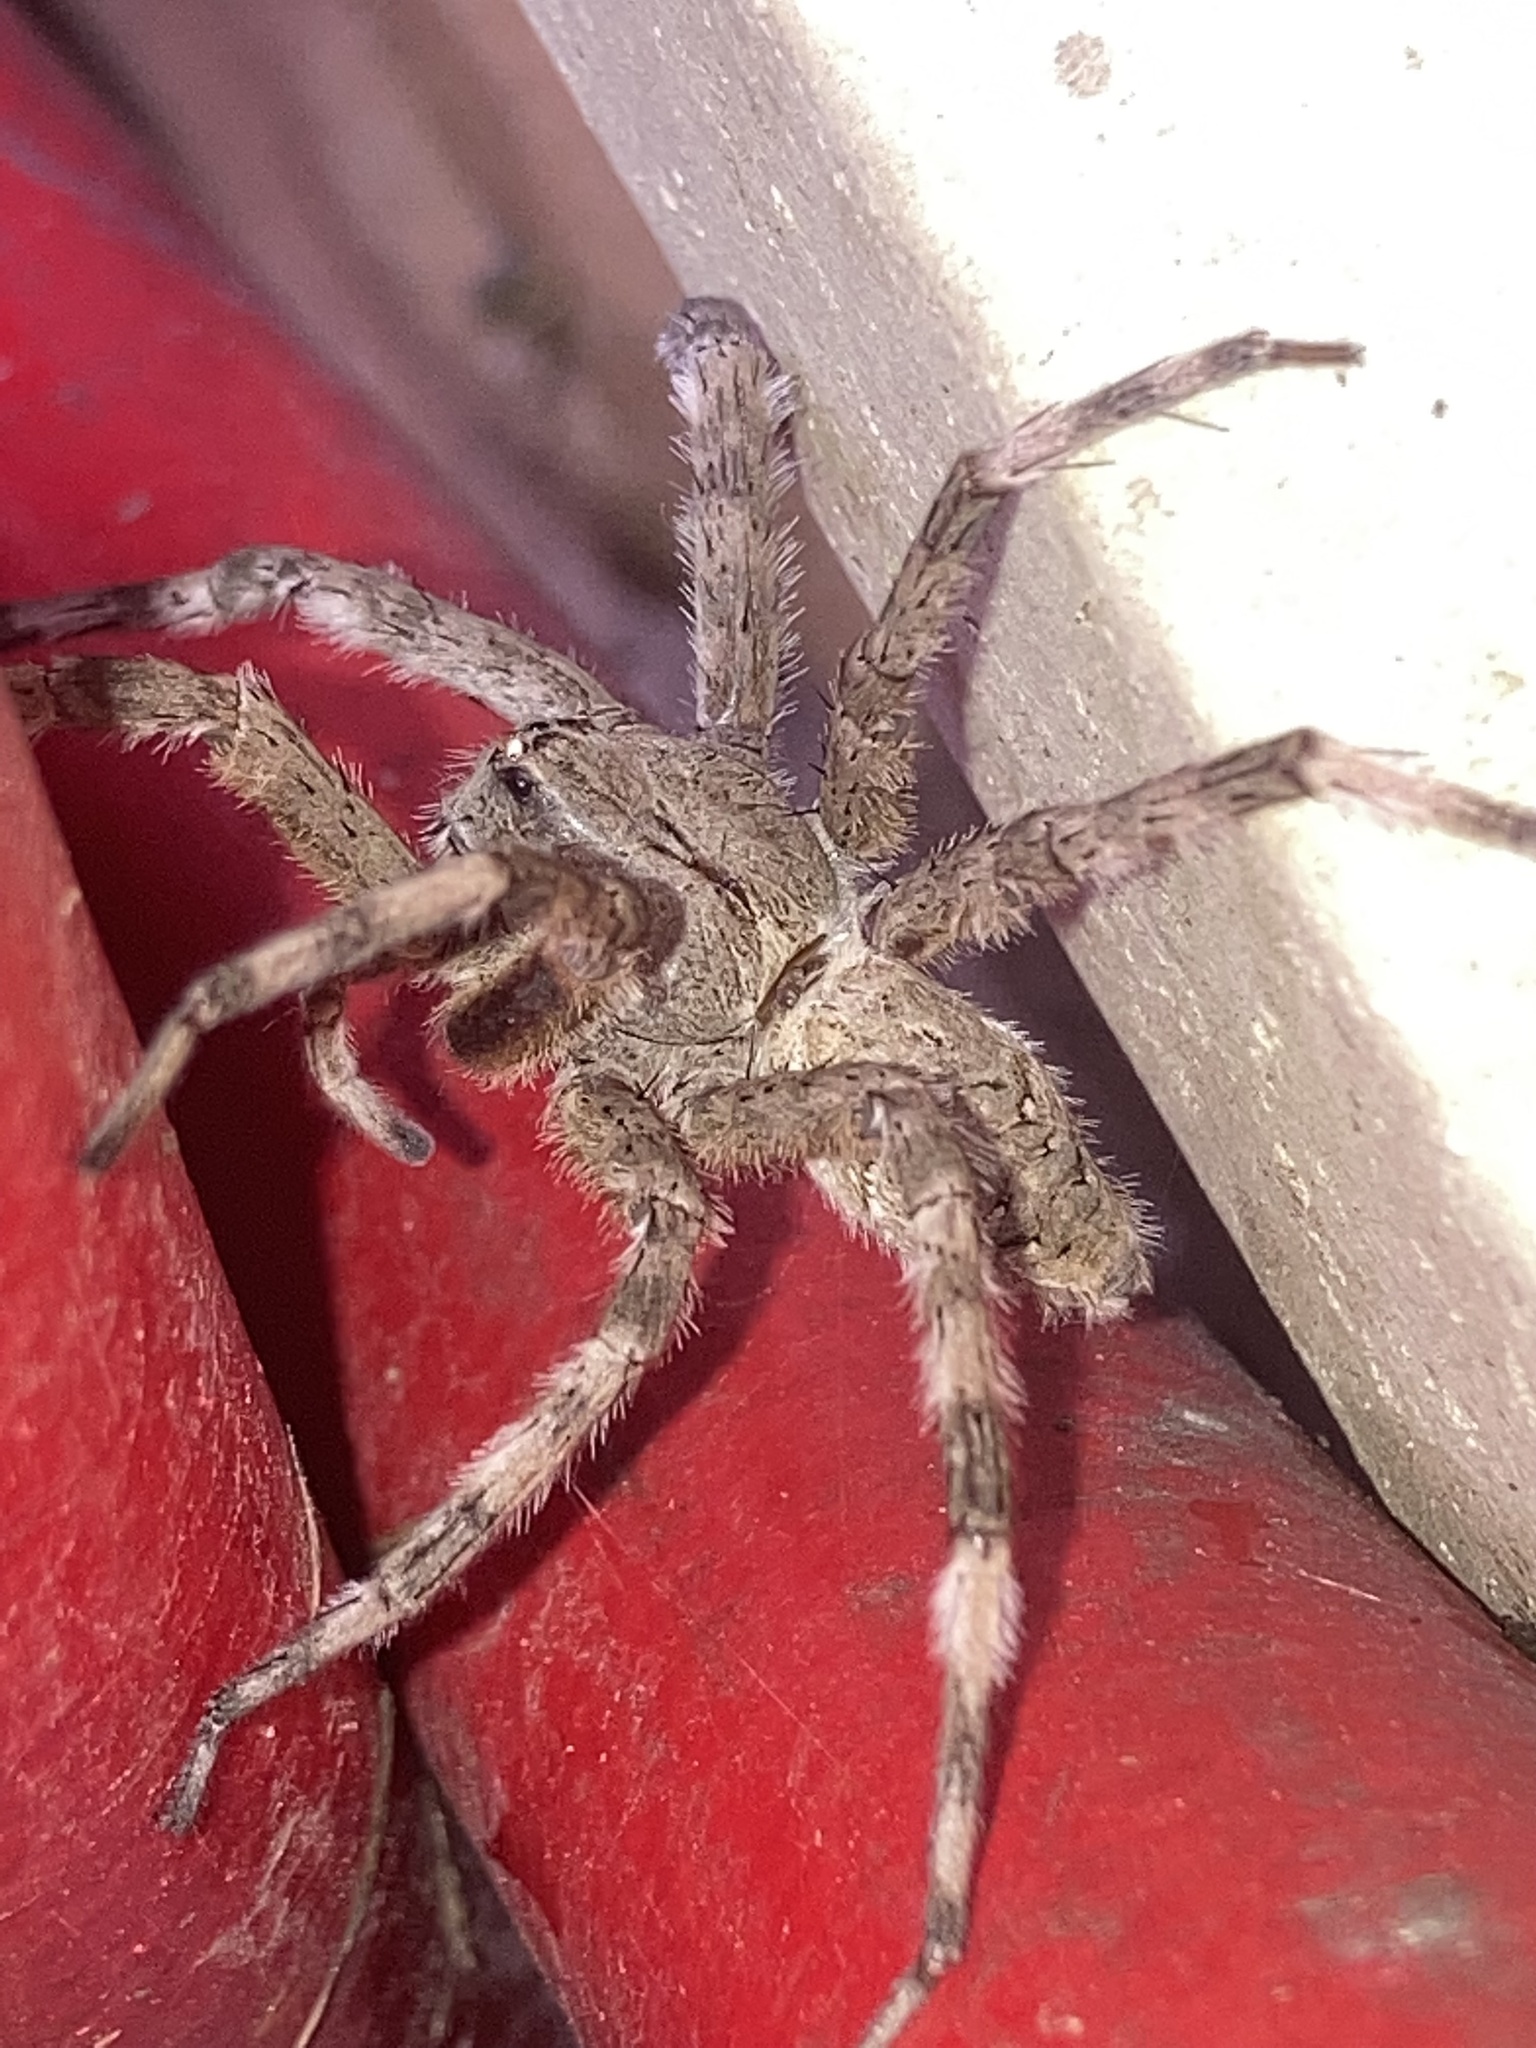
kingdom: Animalia
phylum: Arthropoda
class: Arachnida
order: Araneae
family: Pisauridae
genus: Dolomedes
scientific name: Dolomedes albineus
